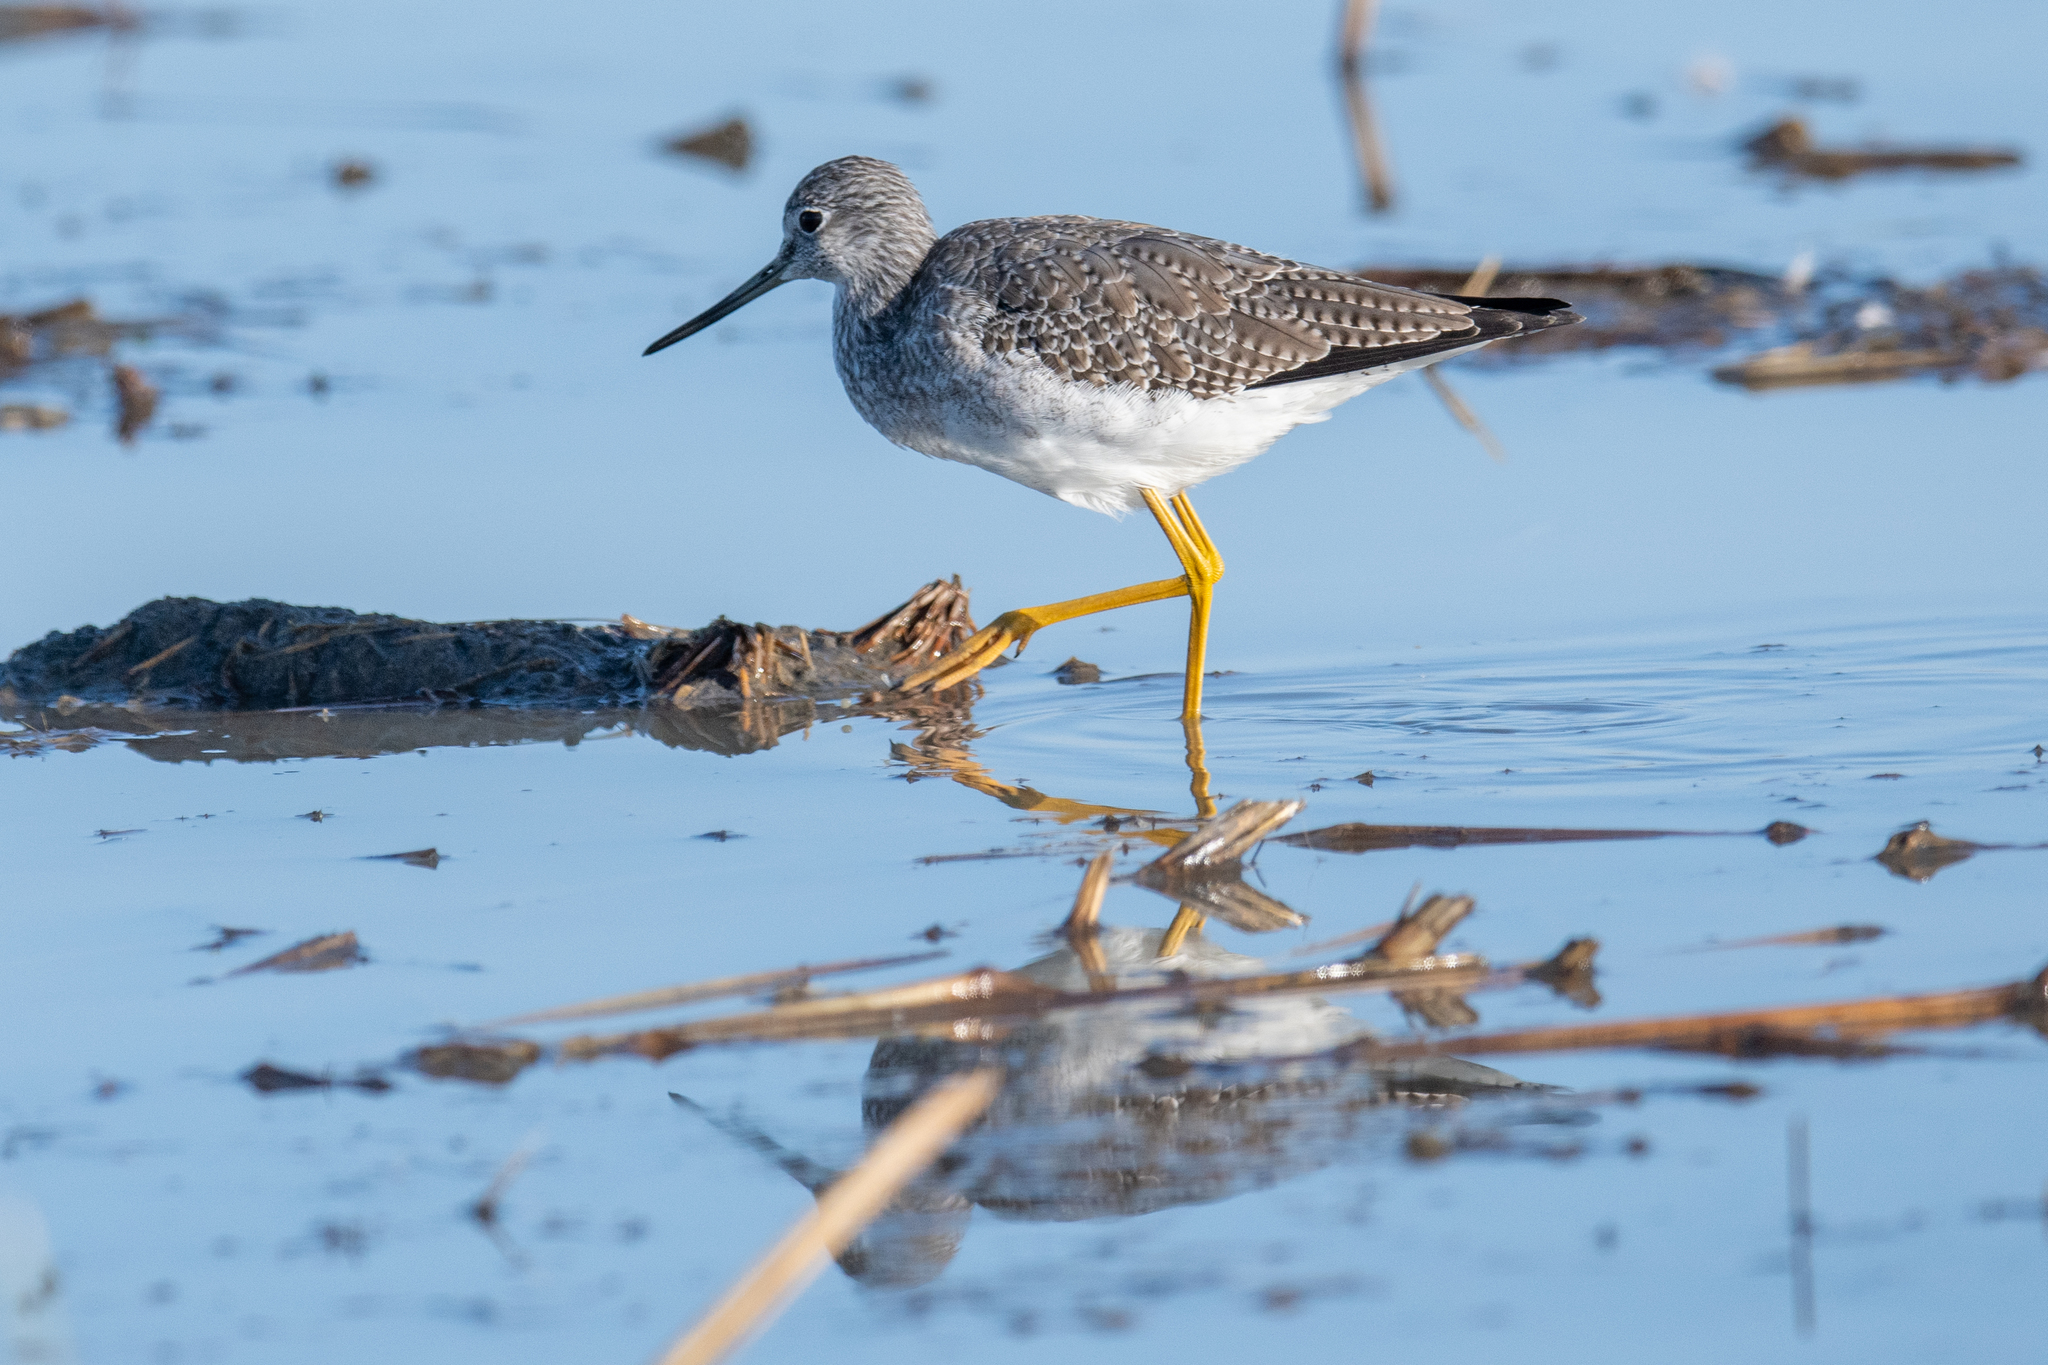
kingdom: Animalia
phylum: Chordata
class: Aves
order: Charadriiformes
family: Scolopacidae
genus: Tringa
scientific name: Tringa melanoleuca
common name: Greater yellowlegs
